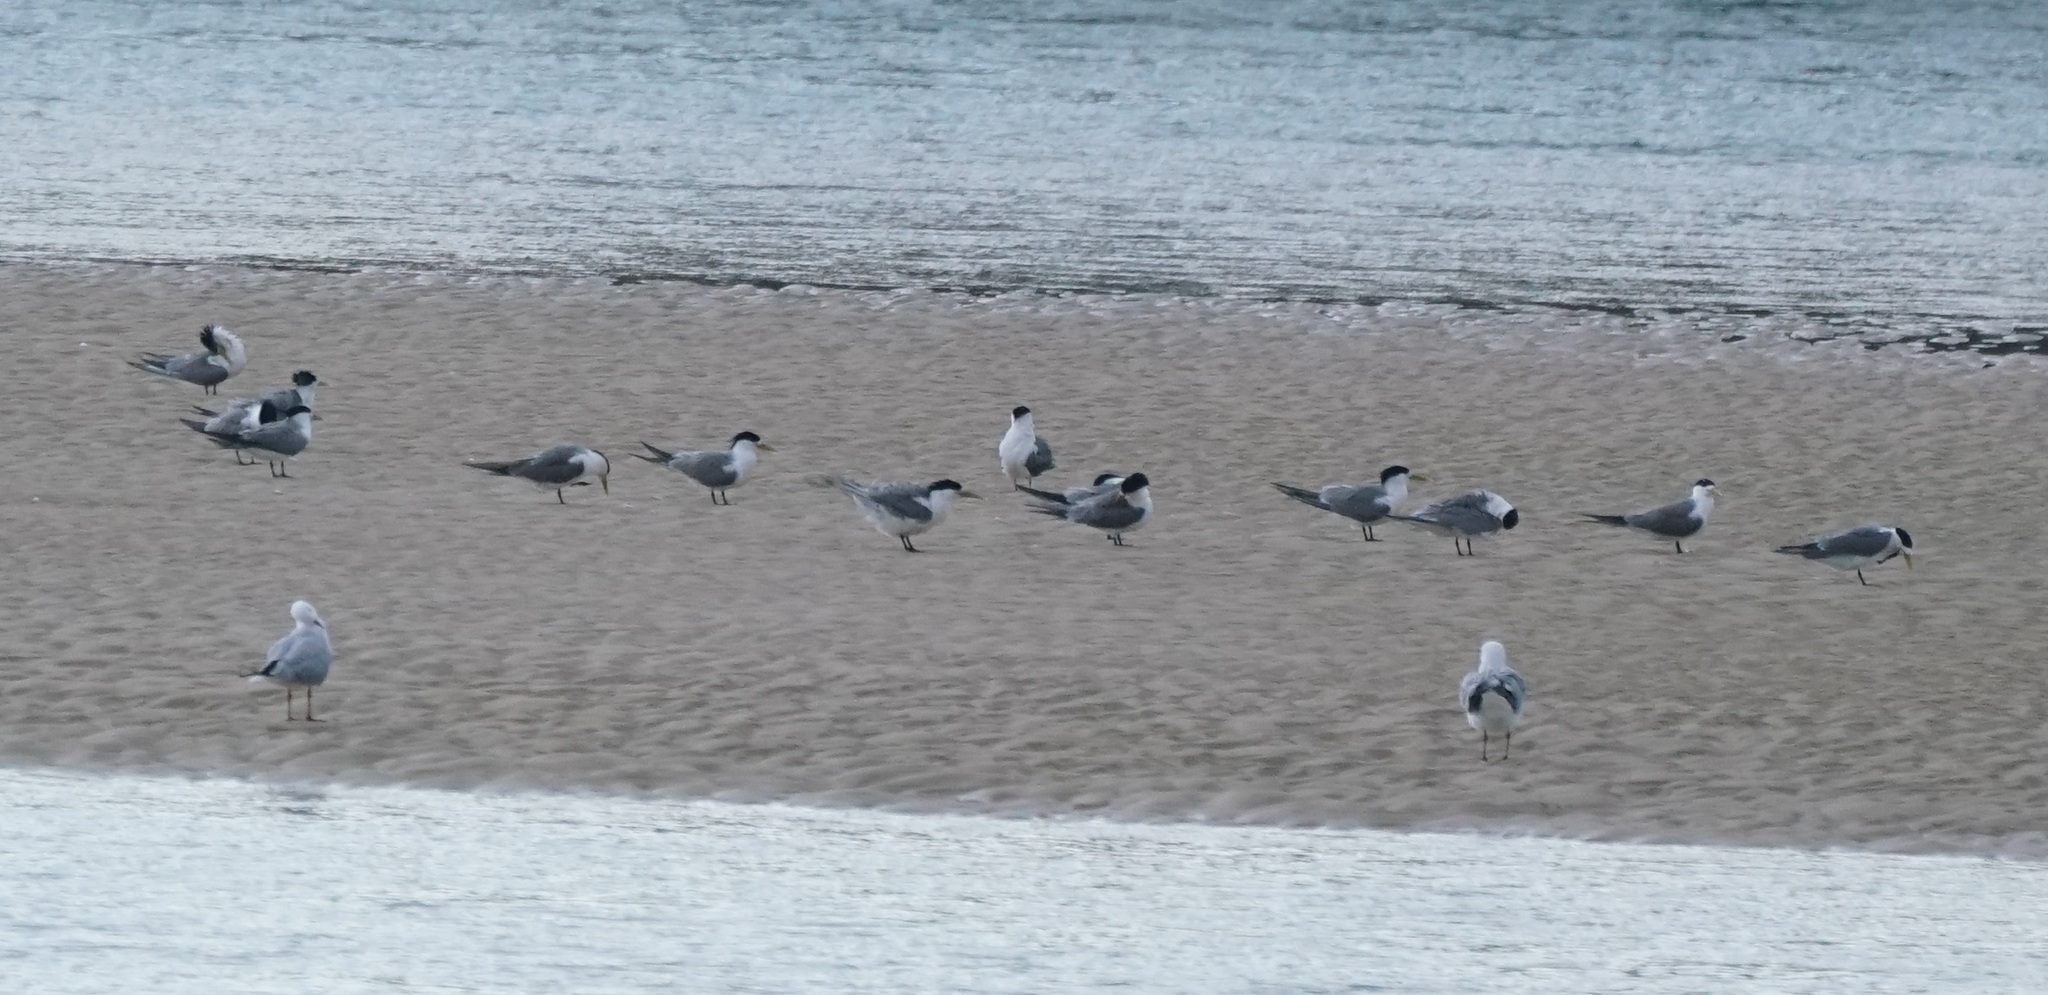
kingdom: Animalia
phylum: Chordata
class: Aves
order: Charadriiformes
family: Laridae
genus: Thalasseus
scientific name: Thalasseus bergii
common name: Greater crested tern
